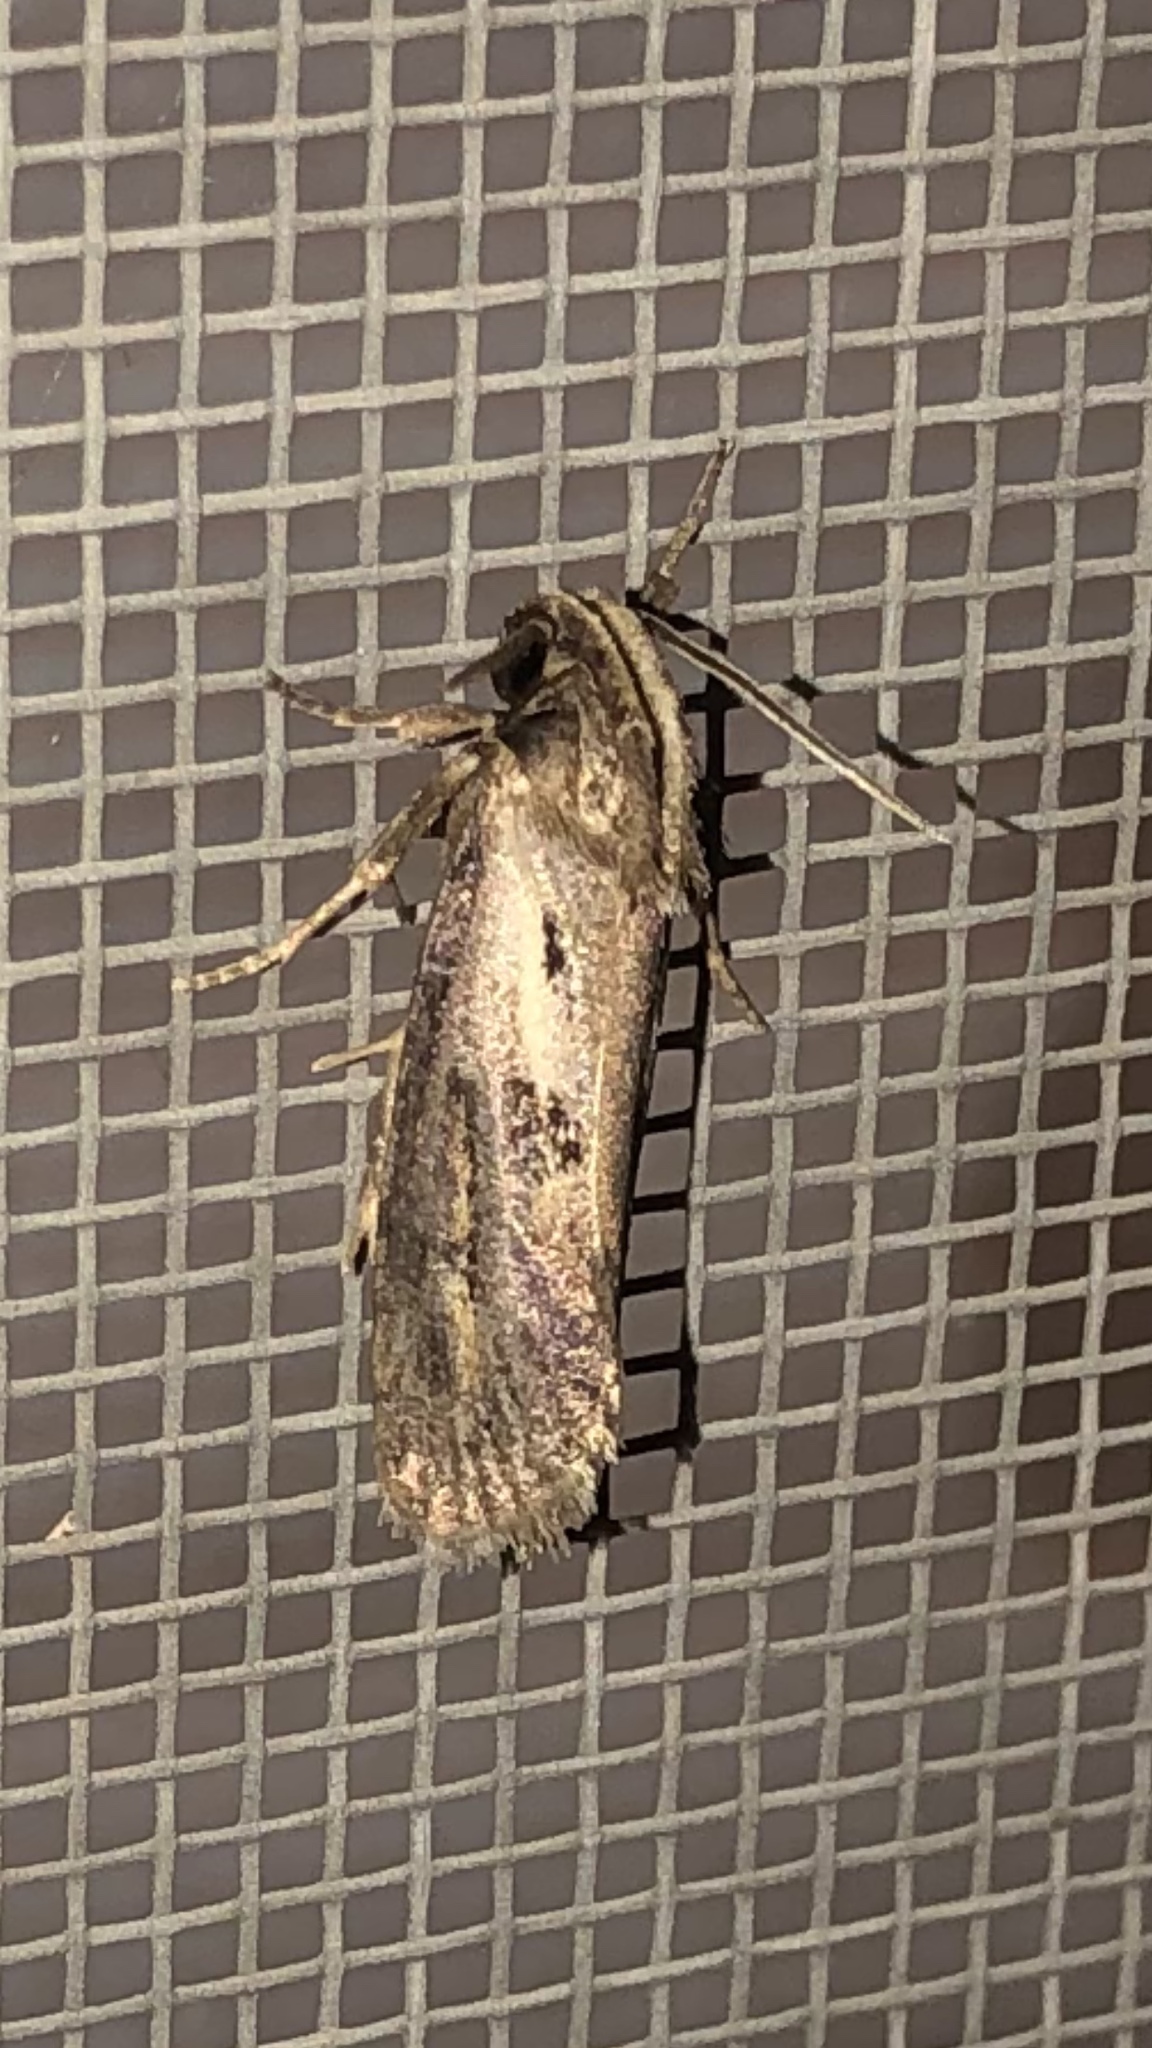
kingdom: Animalia
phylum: Arthropoda
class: Insecta
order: Lepidoptera
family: Tineidae
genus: Acrolophus
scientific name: Acrolophus popeanella
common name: Clemens' grass tubeworm moth
